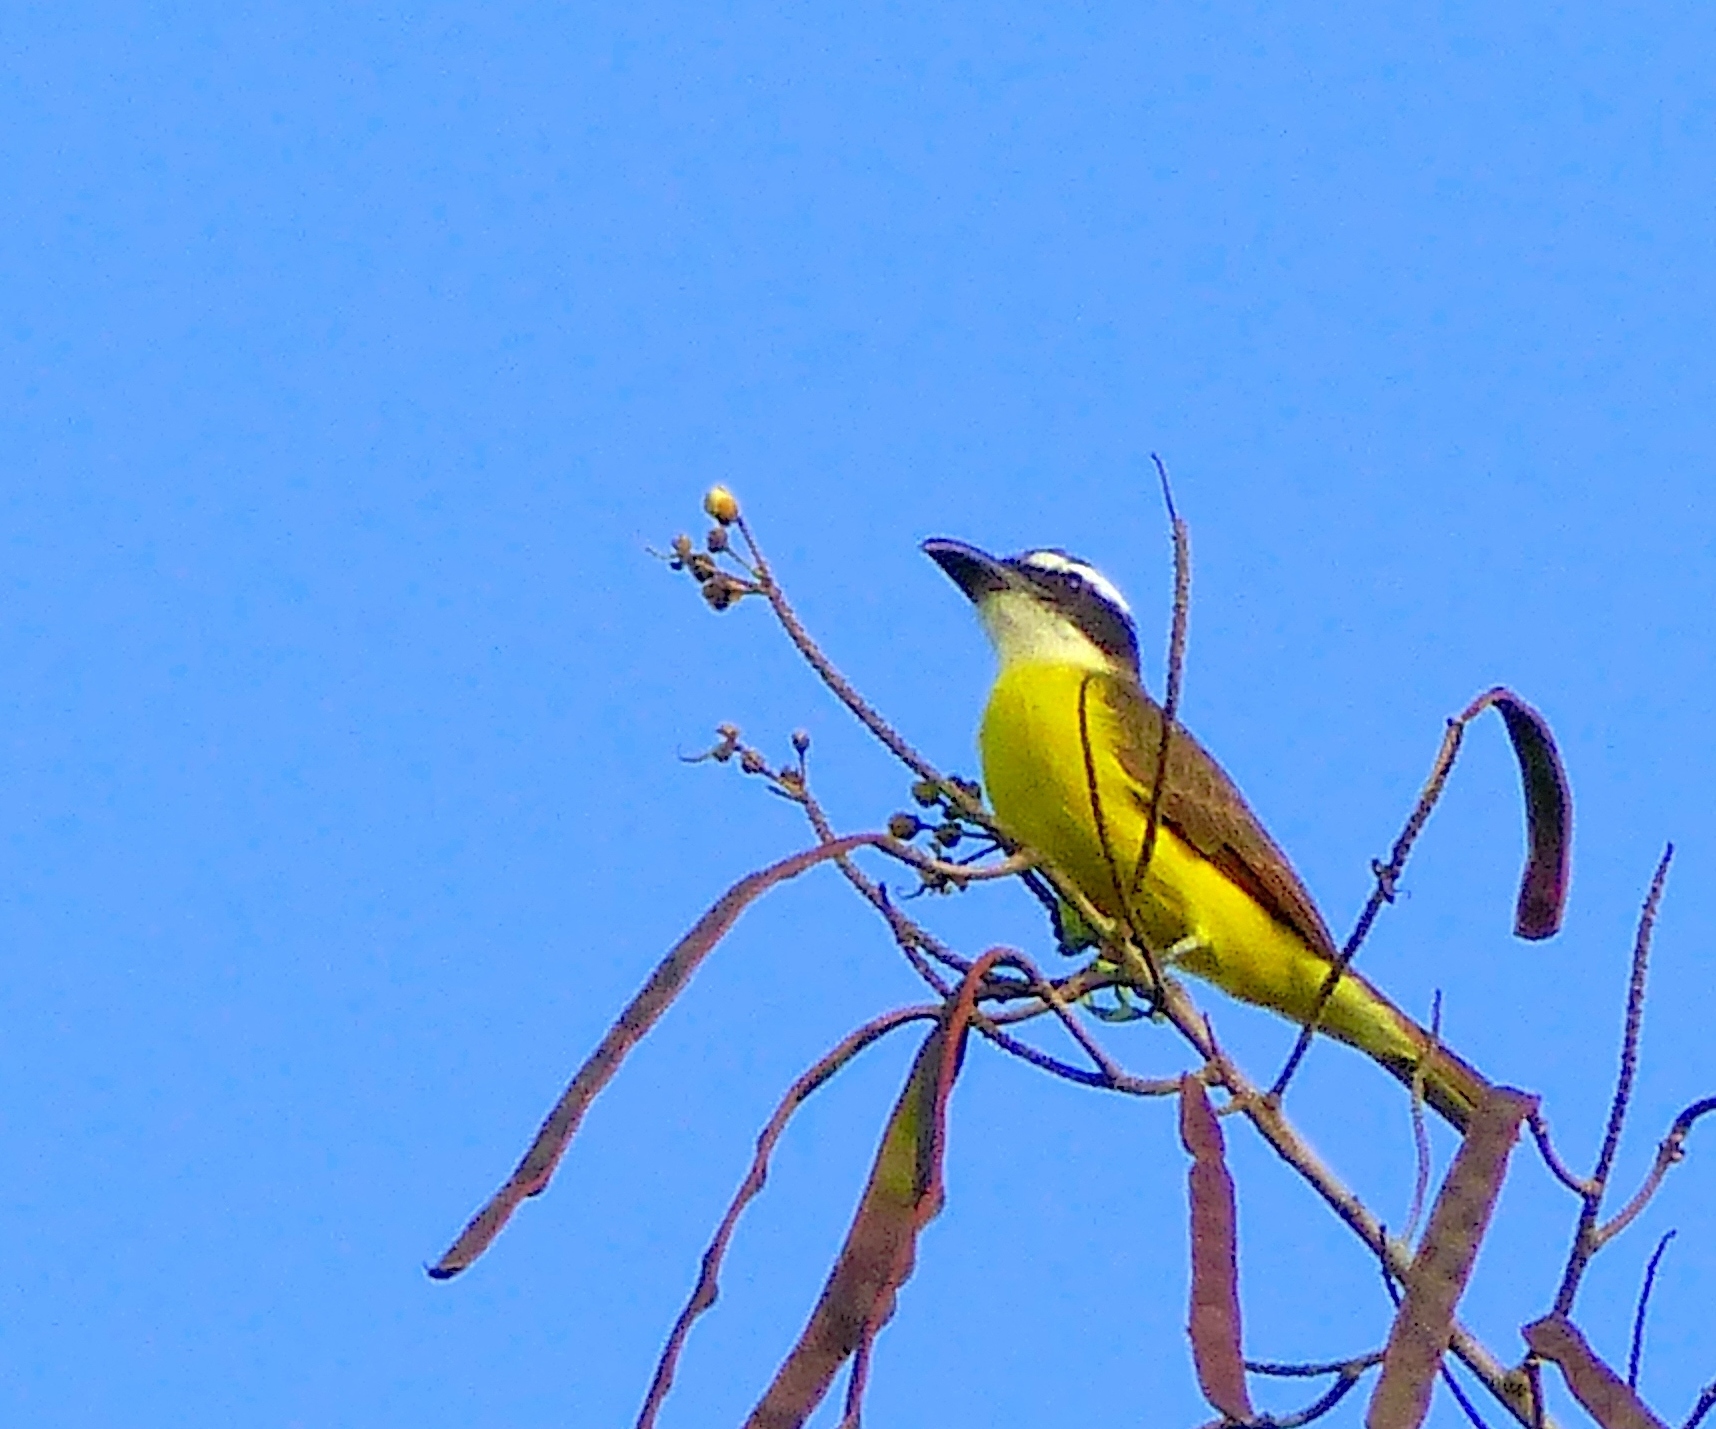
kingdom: Animalia
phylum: Chordata
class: Aves
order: Passeriformes
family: Tyrannidae
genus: Megarynchus
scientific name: Megarynchus pitangua
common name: Boat-billed flycatcher
